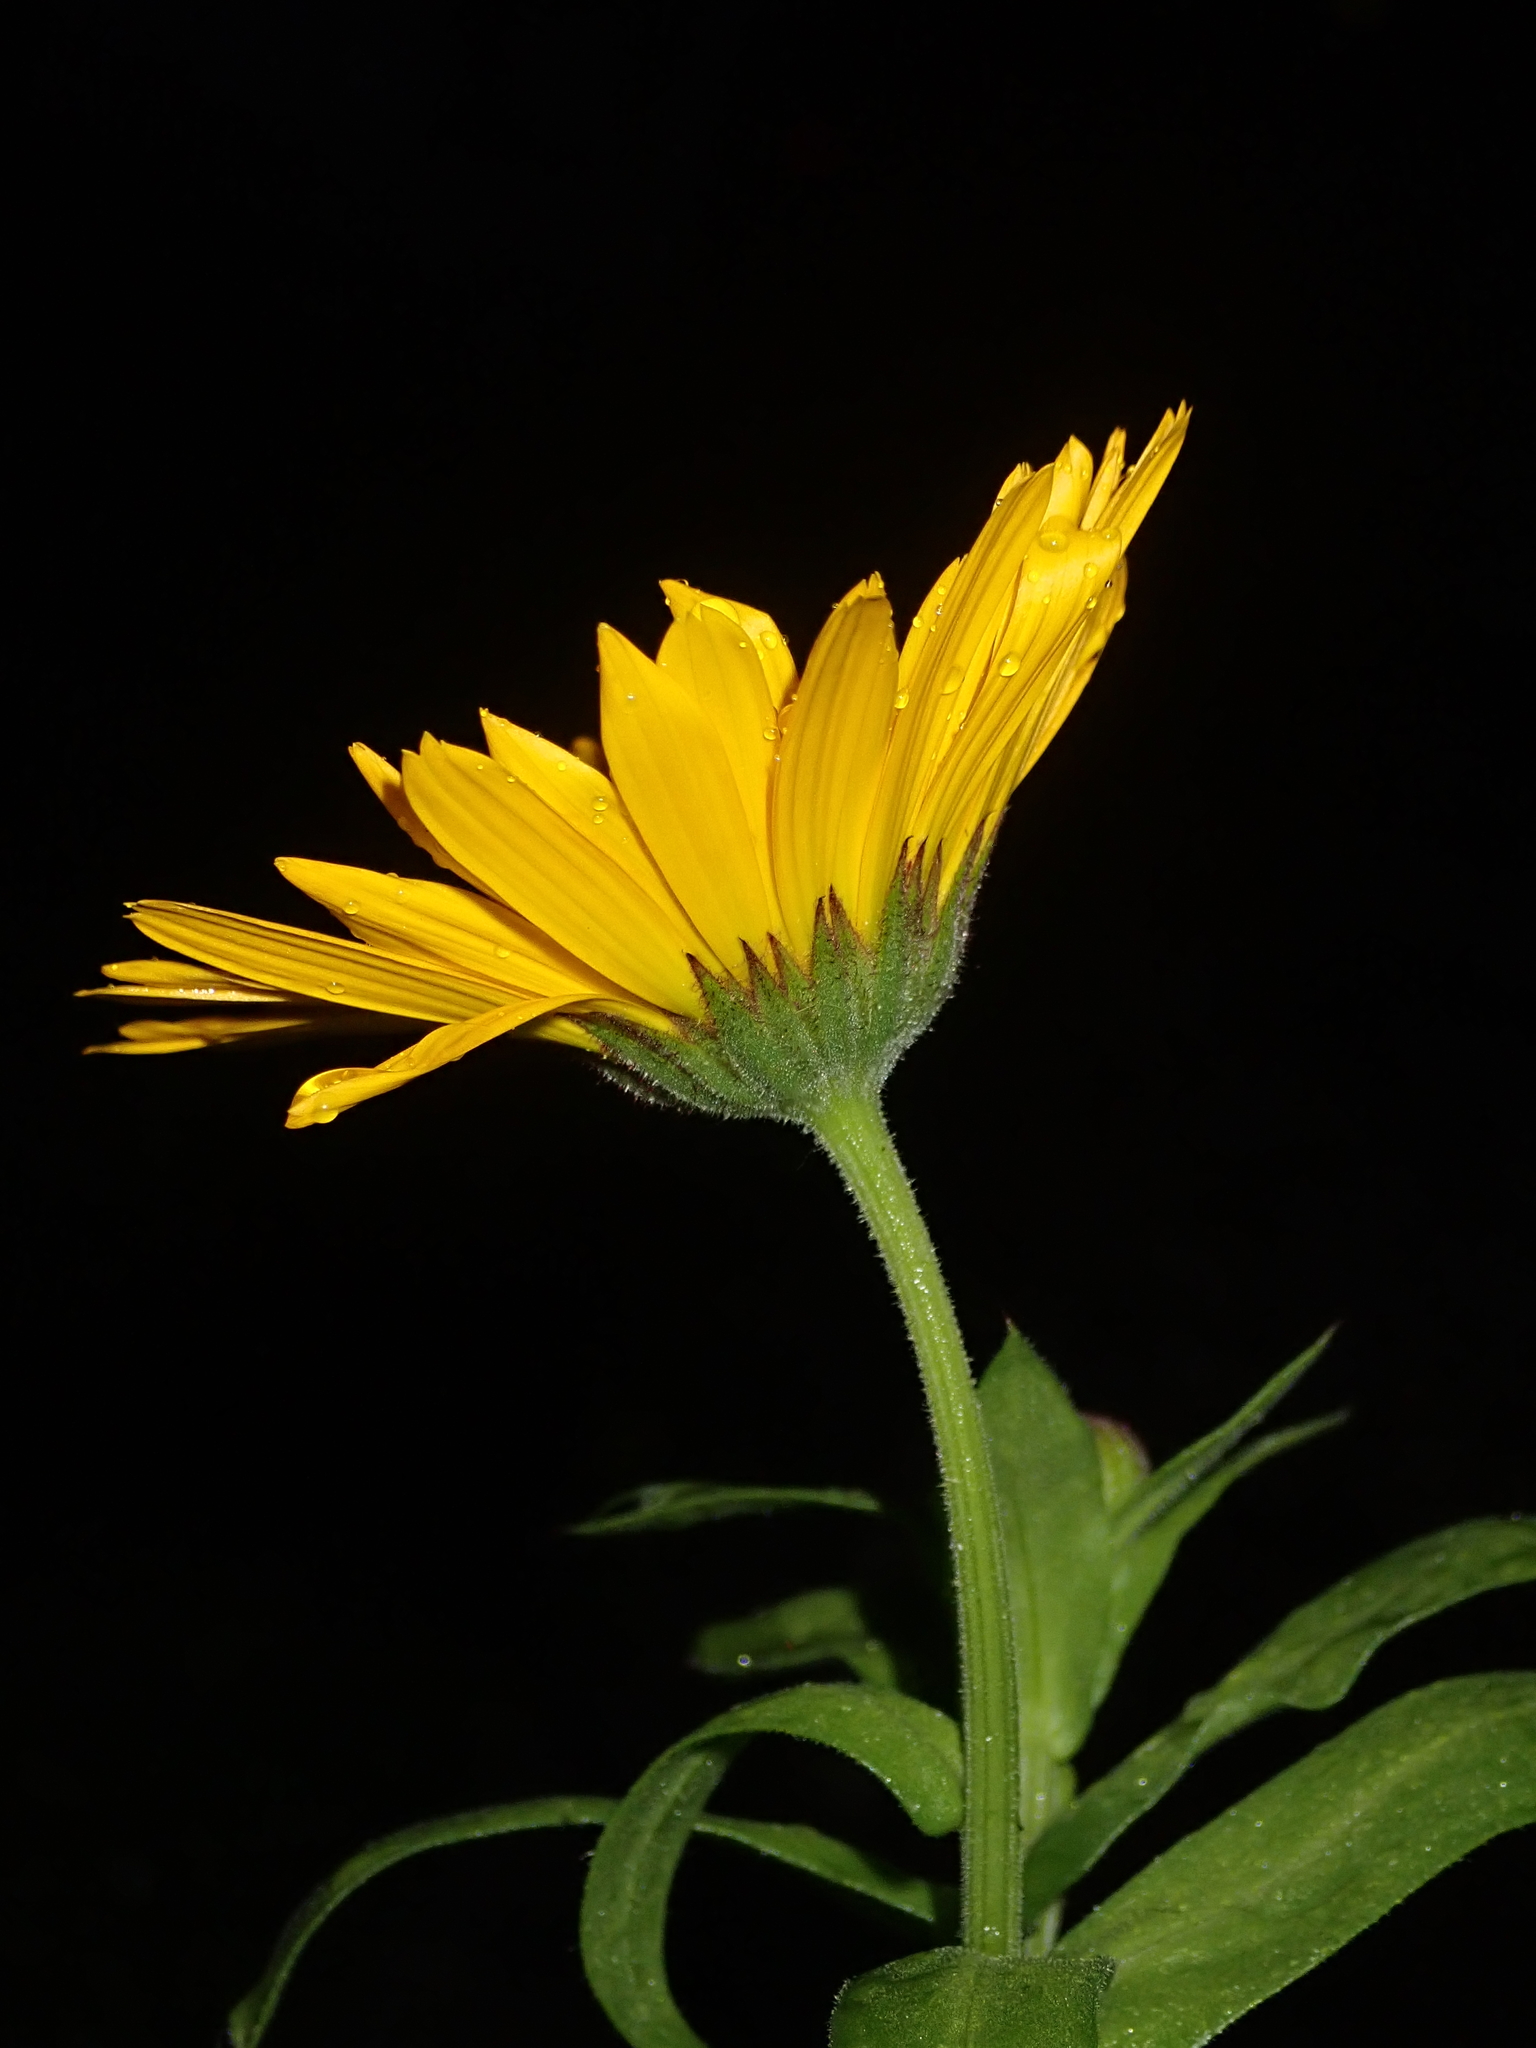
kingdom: Plantae
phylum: Tracheophyta
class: Magnoliopsida
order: Asterales
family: Asteraceae
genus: Calendula
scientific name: Calendula officinalis
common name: Pot marigold
